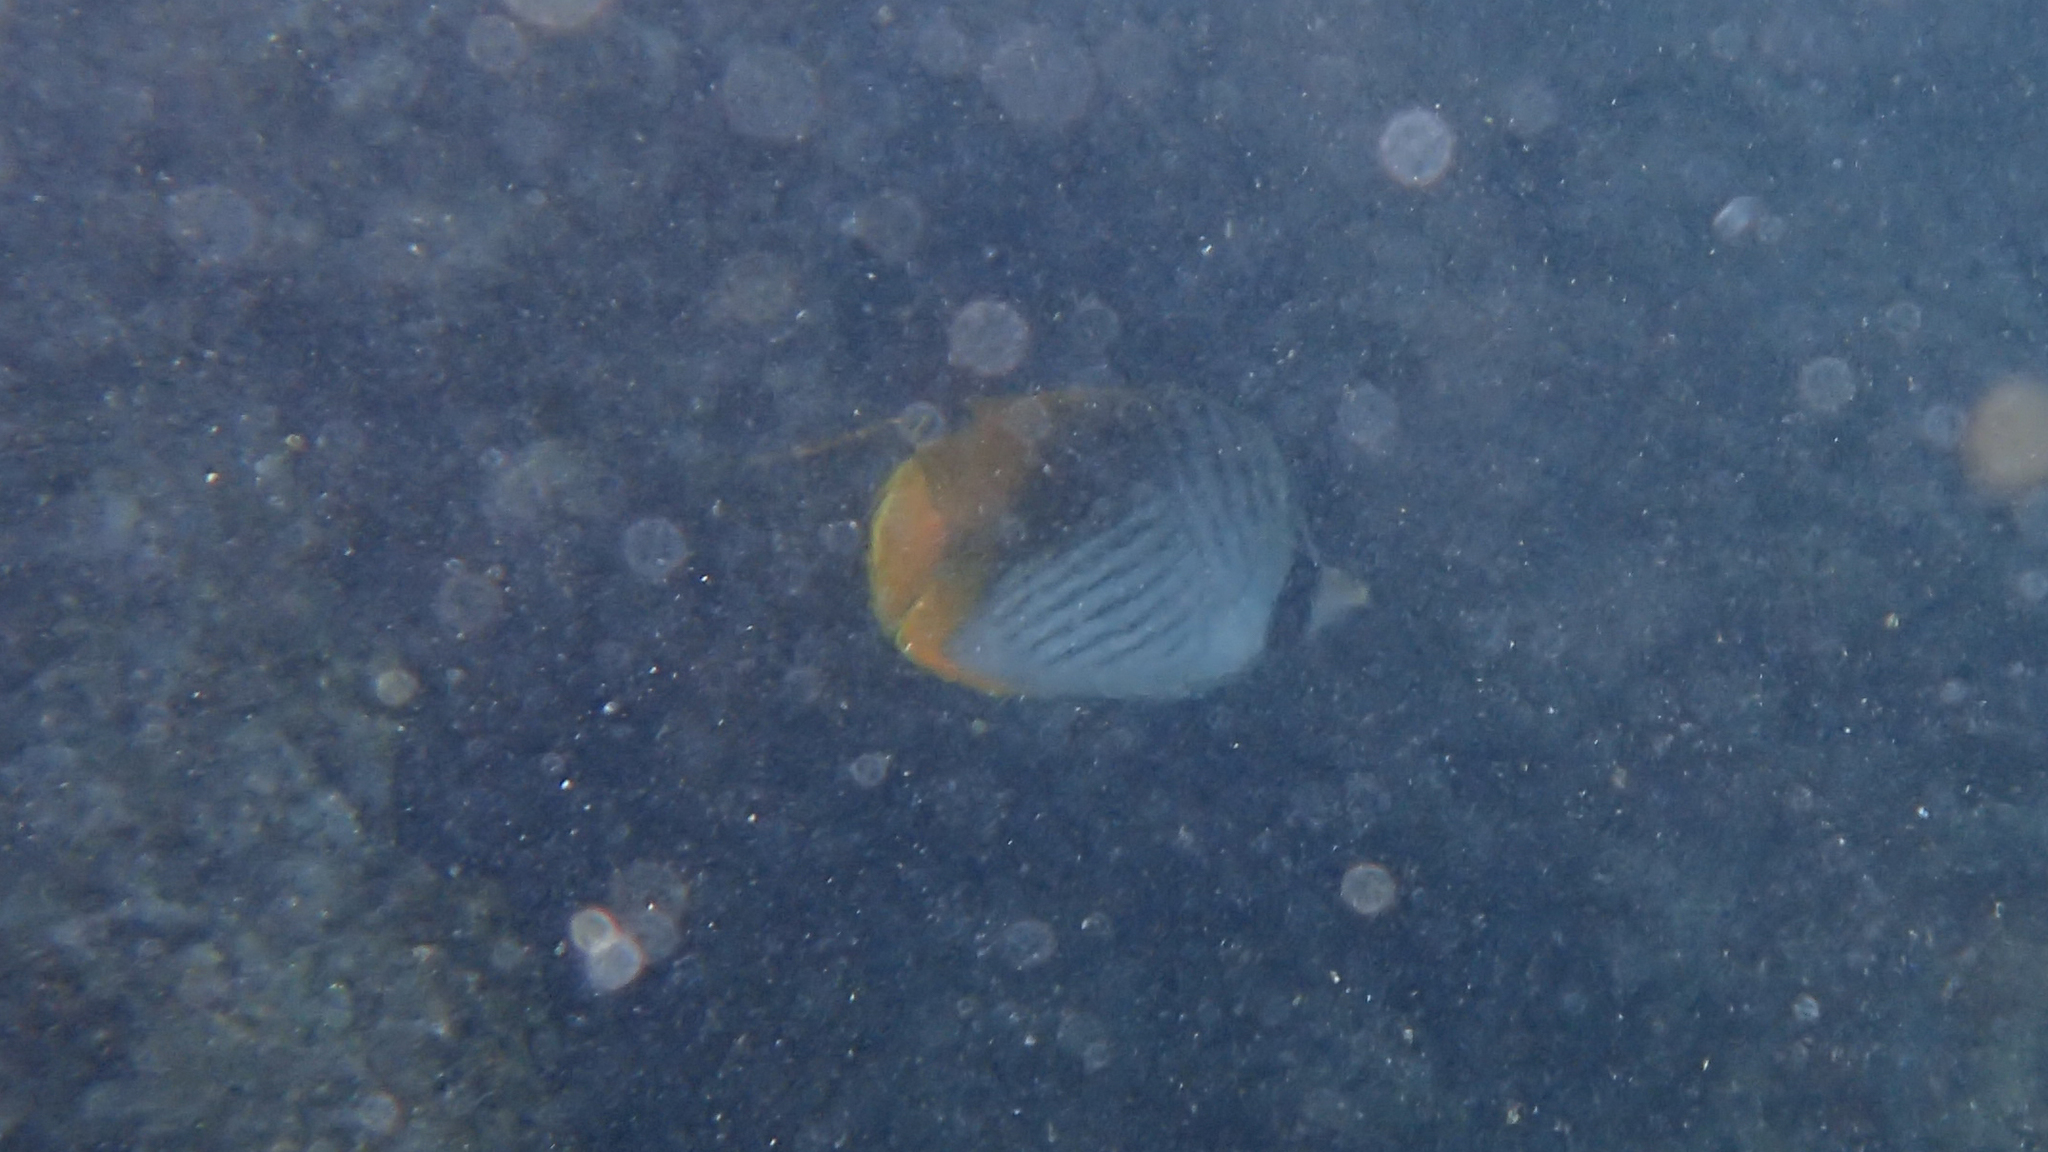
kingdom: Animalia
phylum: Chordata
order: Perciformes
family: Chaetodontidae
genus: Chaetodon
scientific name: Chaetodon auriga
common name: Threadfin butterflyfish
